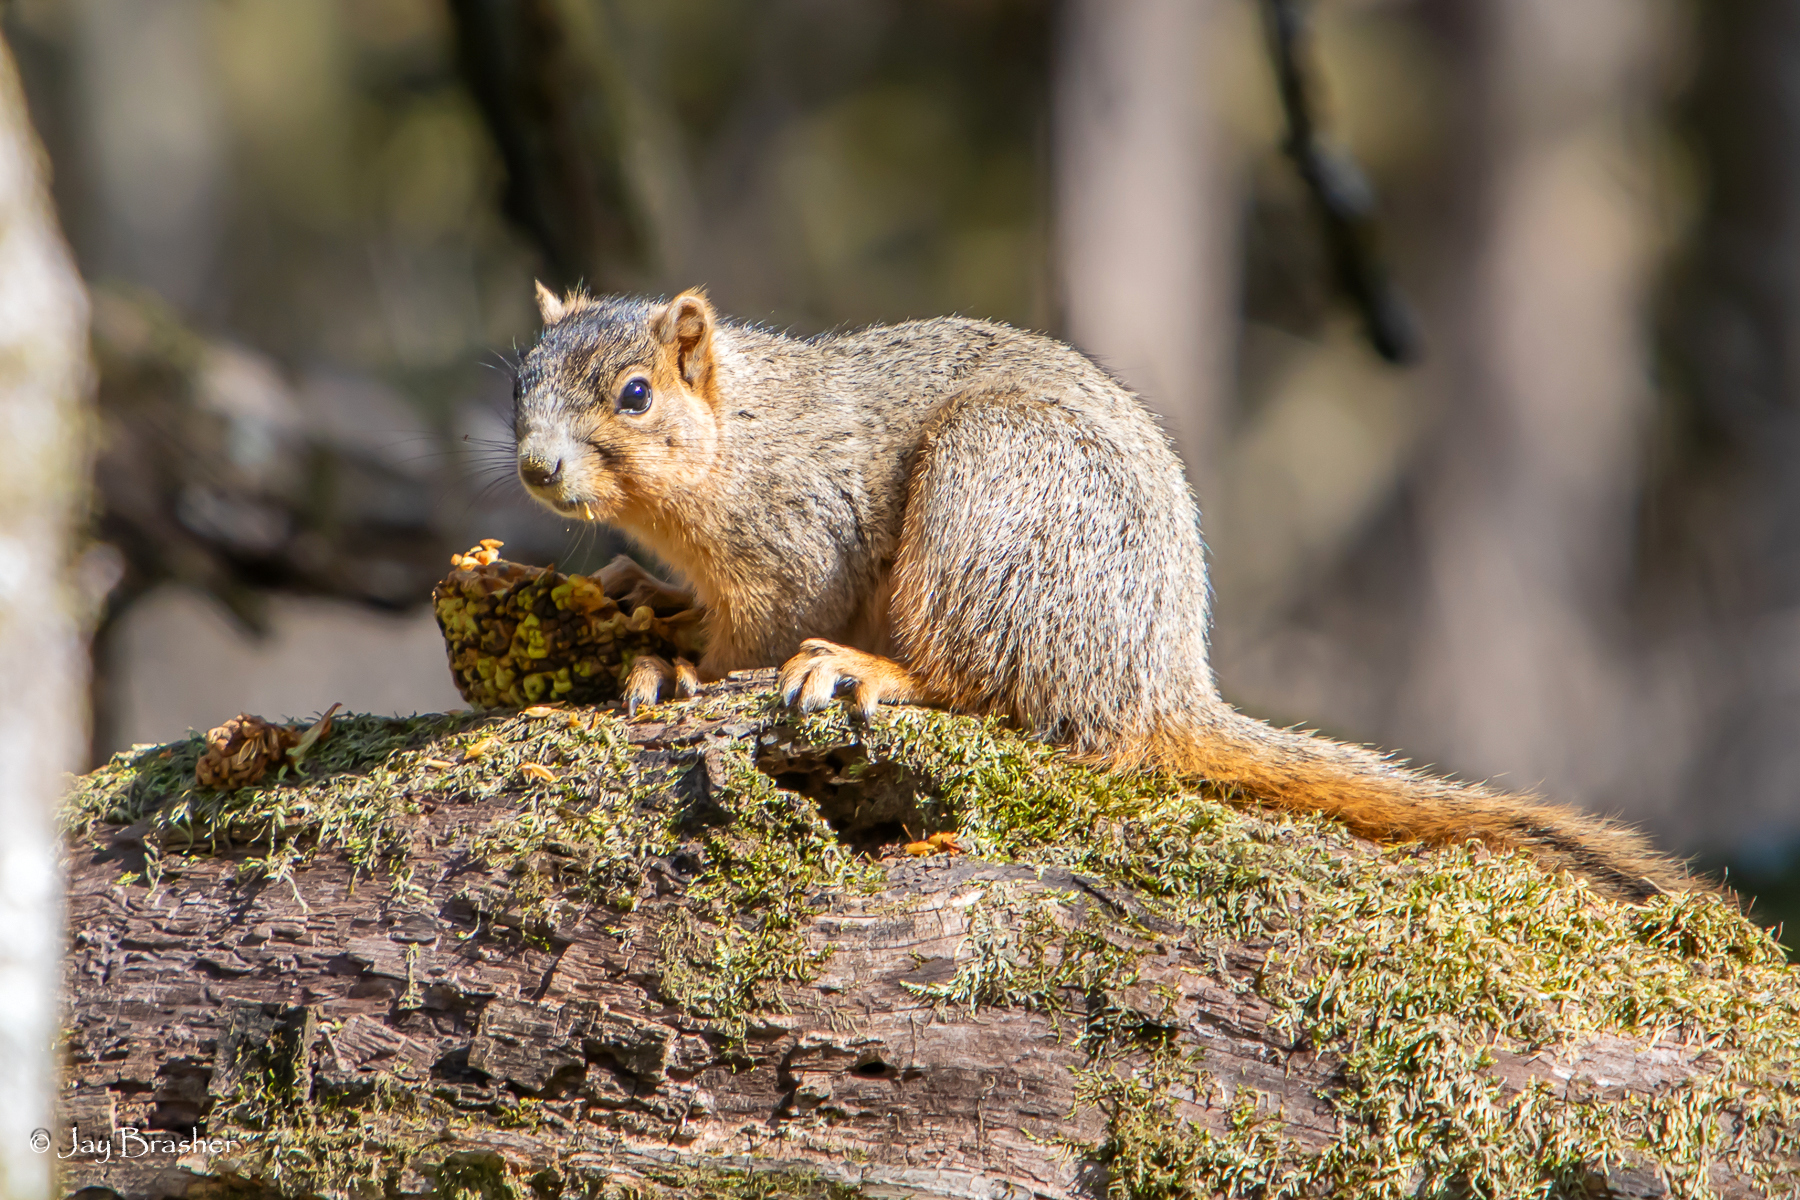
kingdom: Animalia
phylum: Chordata
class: Mammalia
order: Rodentia
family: Sciuridae
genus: Sciurus
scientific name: Sciurus niger
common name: Fox squirrel
